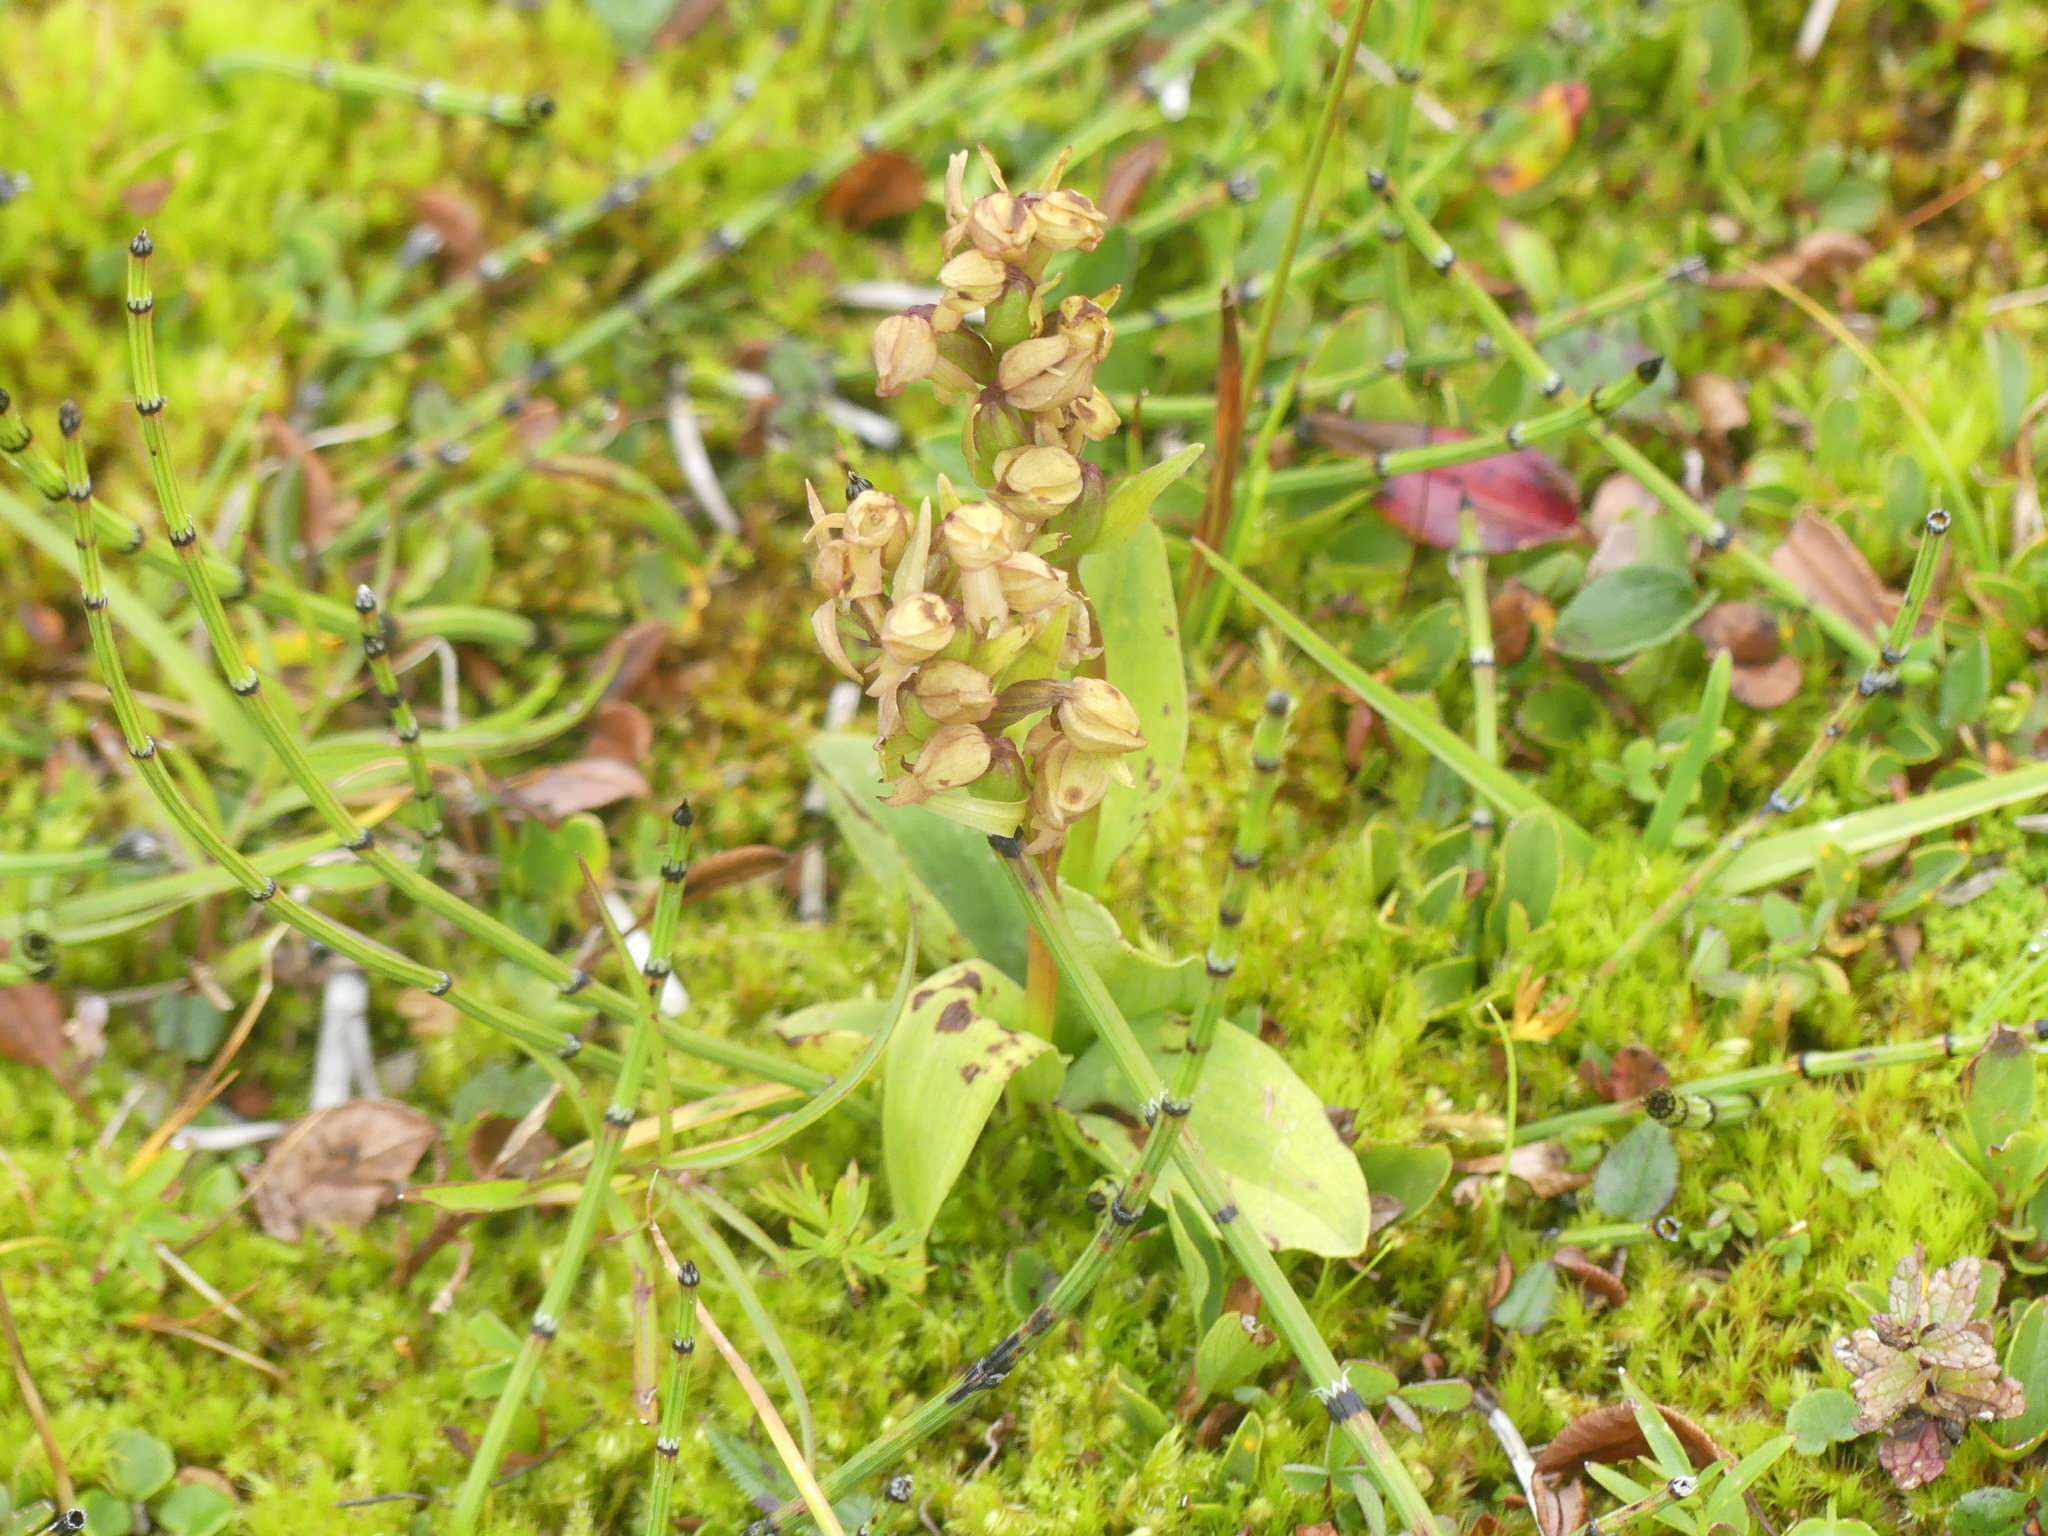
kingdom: Plantae
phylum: Tracheophyta
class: Liliopsida
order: Asparagales
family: Orchidaceae
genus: Dactylorhiza
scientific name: Dactylorhiza viridis
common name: Longbract frog orchid
